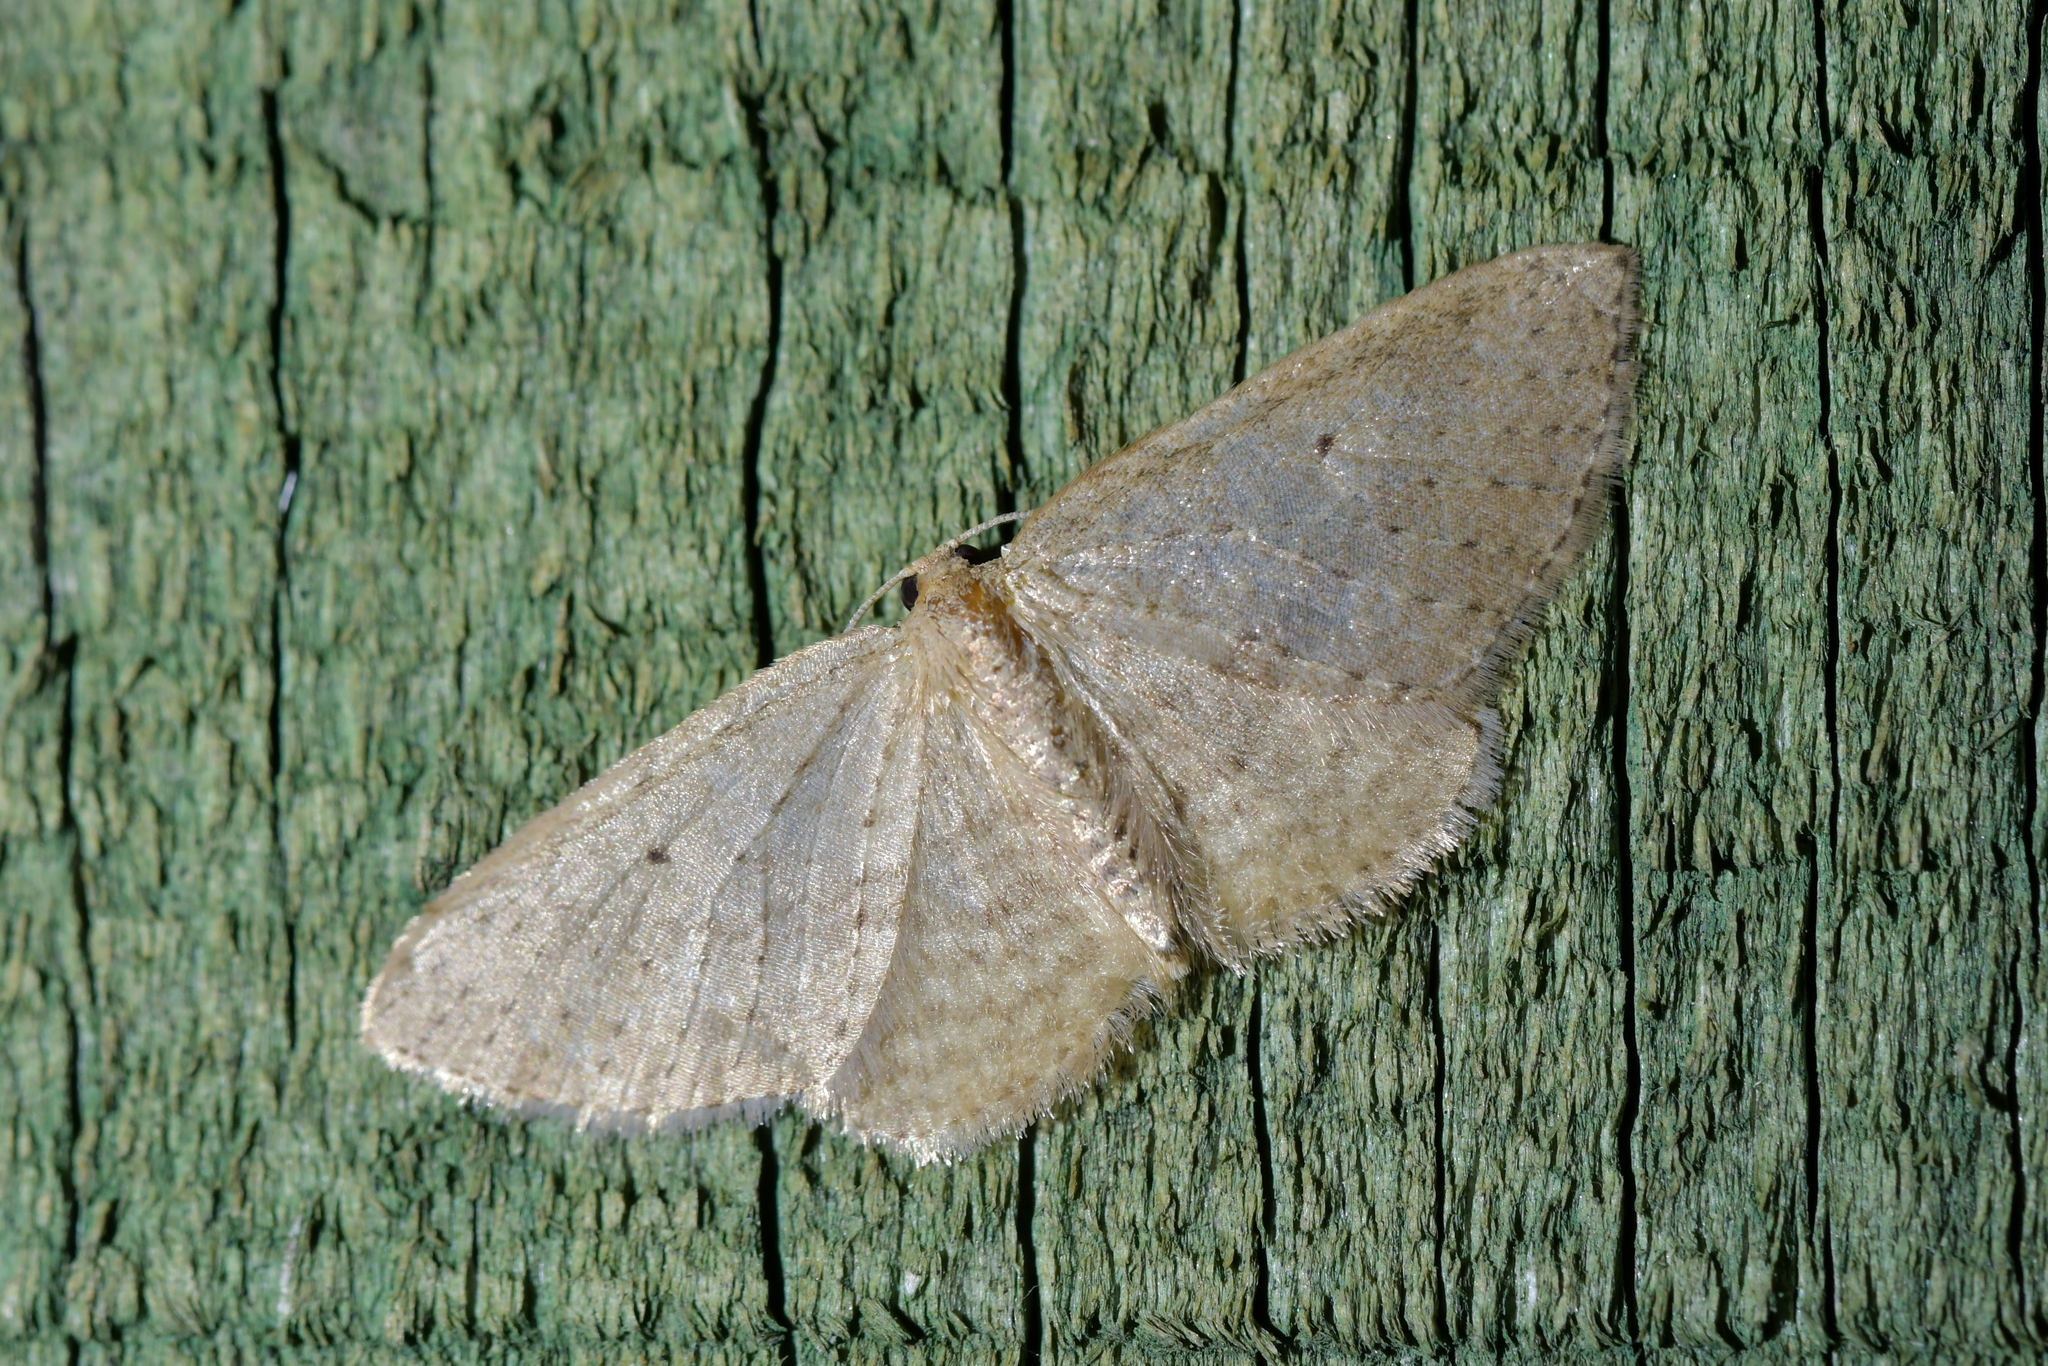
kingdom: Animalia
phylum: Arthropoda
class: Insecta
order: Lepidoptera
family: Geometridae
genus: Poecilasthena
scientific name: Poecilasthena schistaria
